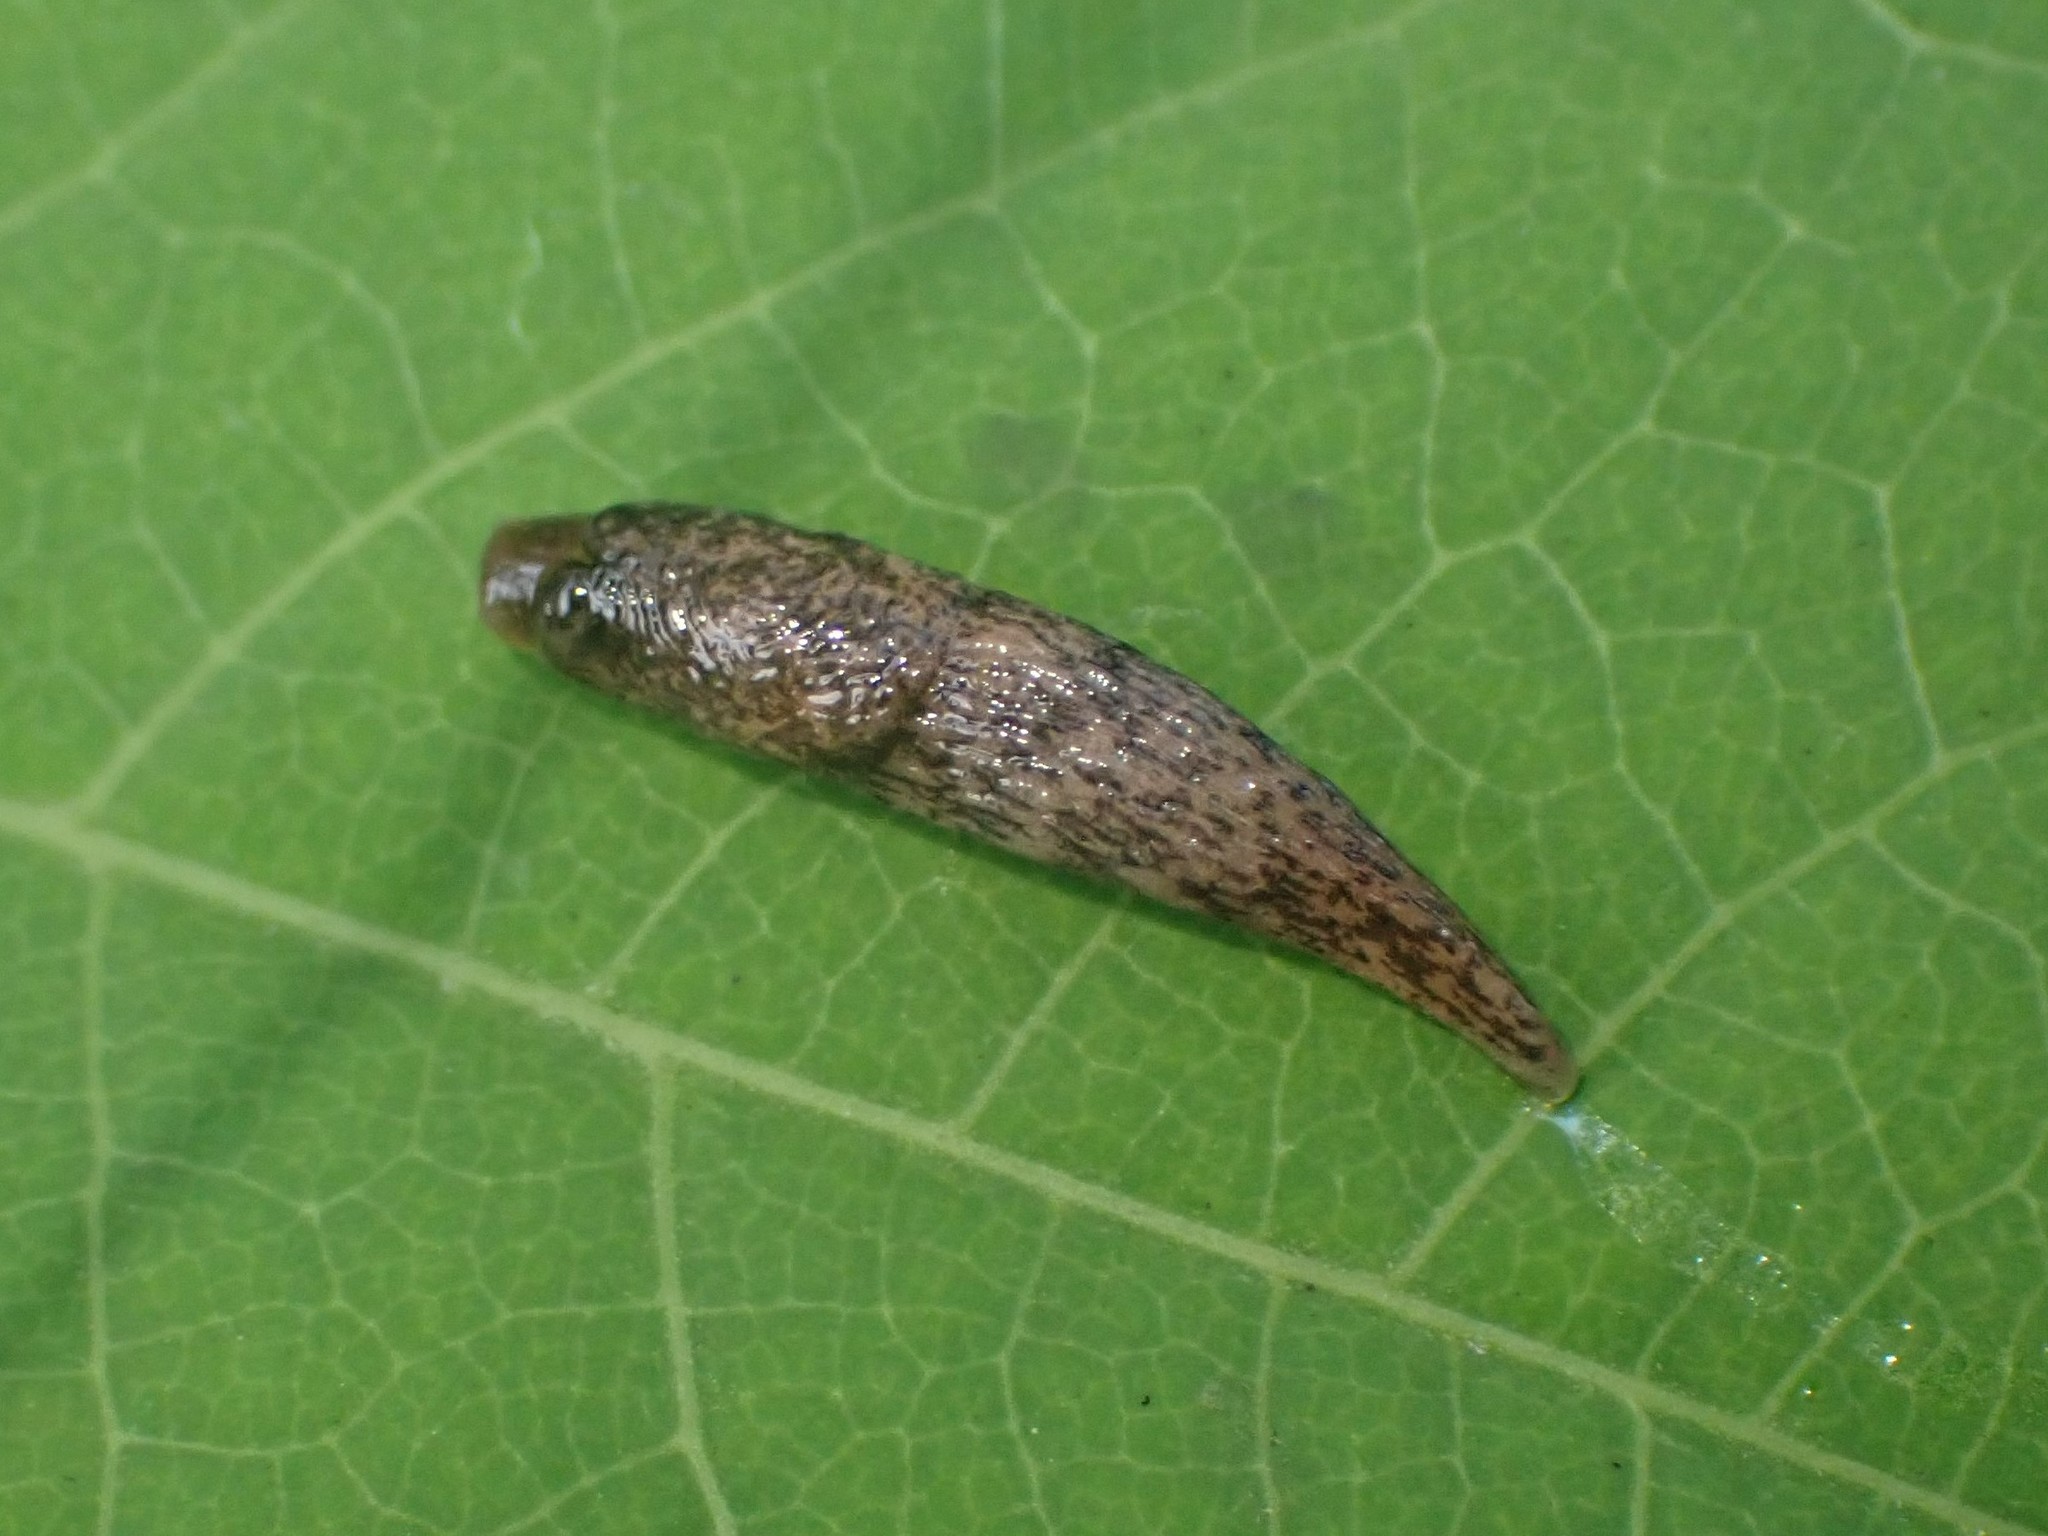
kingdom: Animalia
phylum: Mollusca
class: Gastropoda
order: Stylommatophora
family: Agriolimacidae
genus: Deroceras
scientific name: Deroceras reticulatum
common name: Gray field slug
